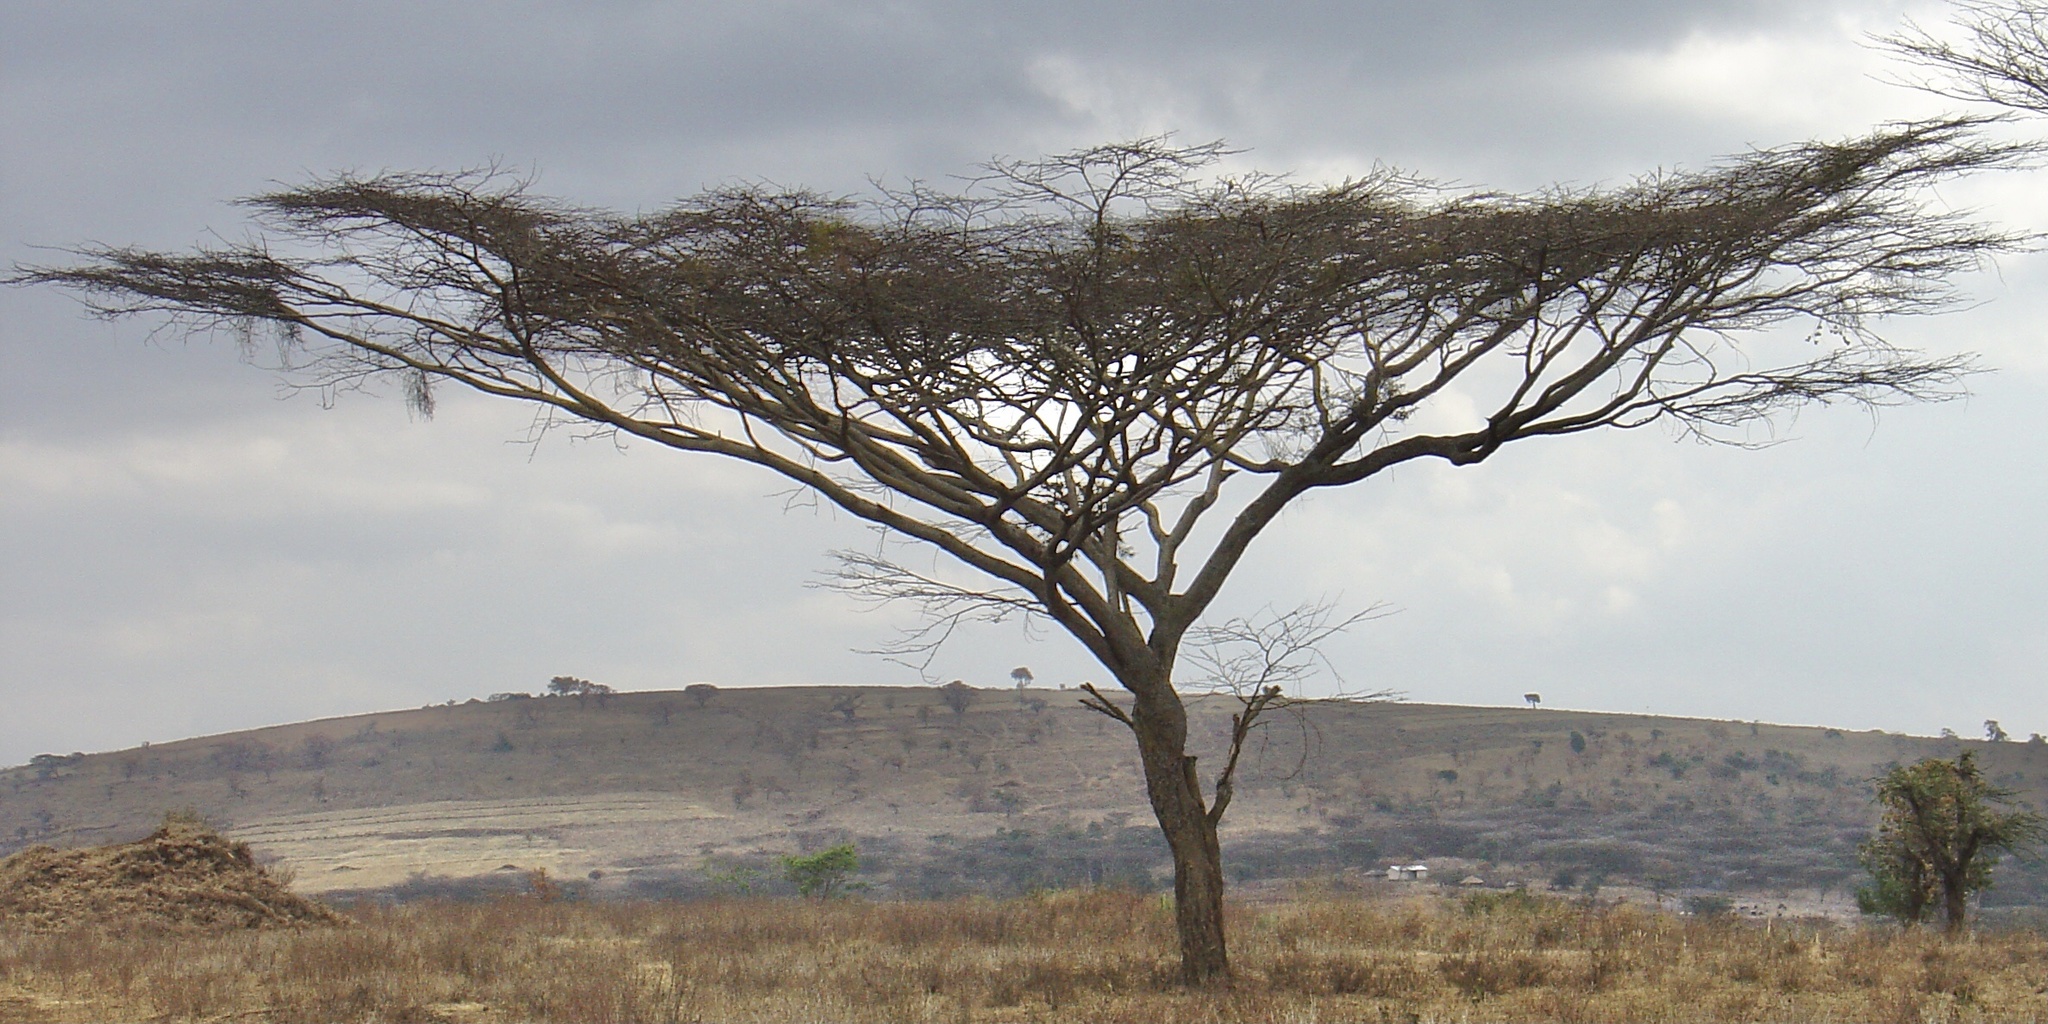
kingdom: Plantae
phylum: Tracheophyta
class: Magnoliopsida
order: Fabales
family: Fabaceae
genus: Vachellia
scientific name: Vachellia tortilis
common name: Umbrella thorn acacia
